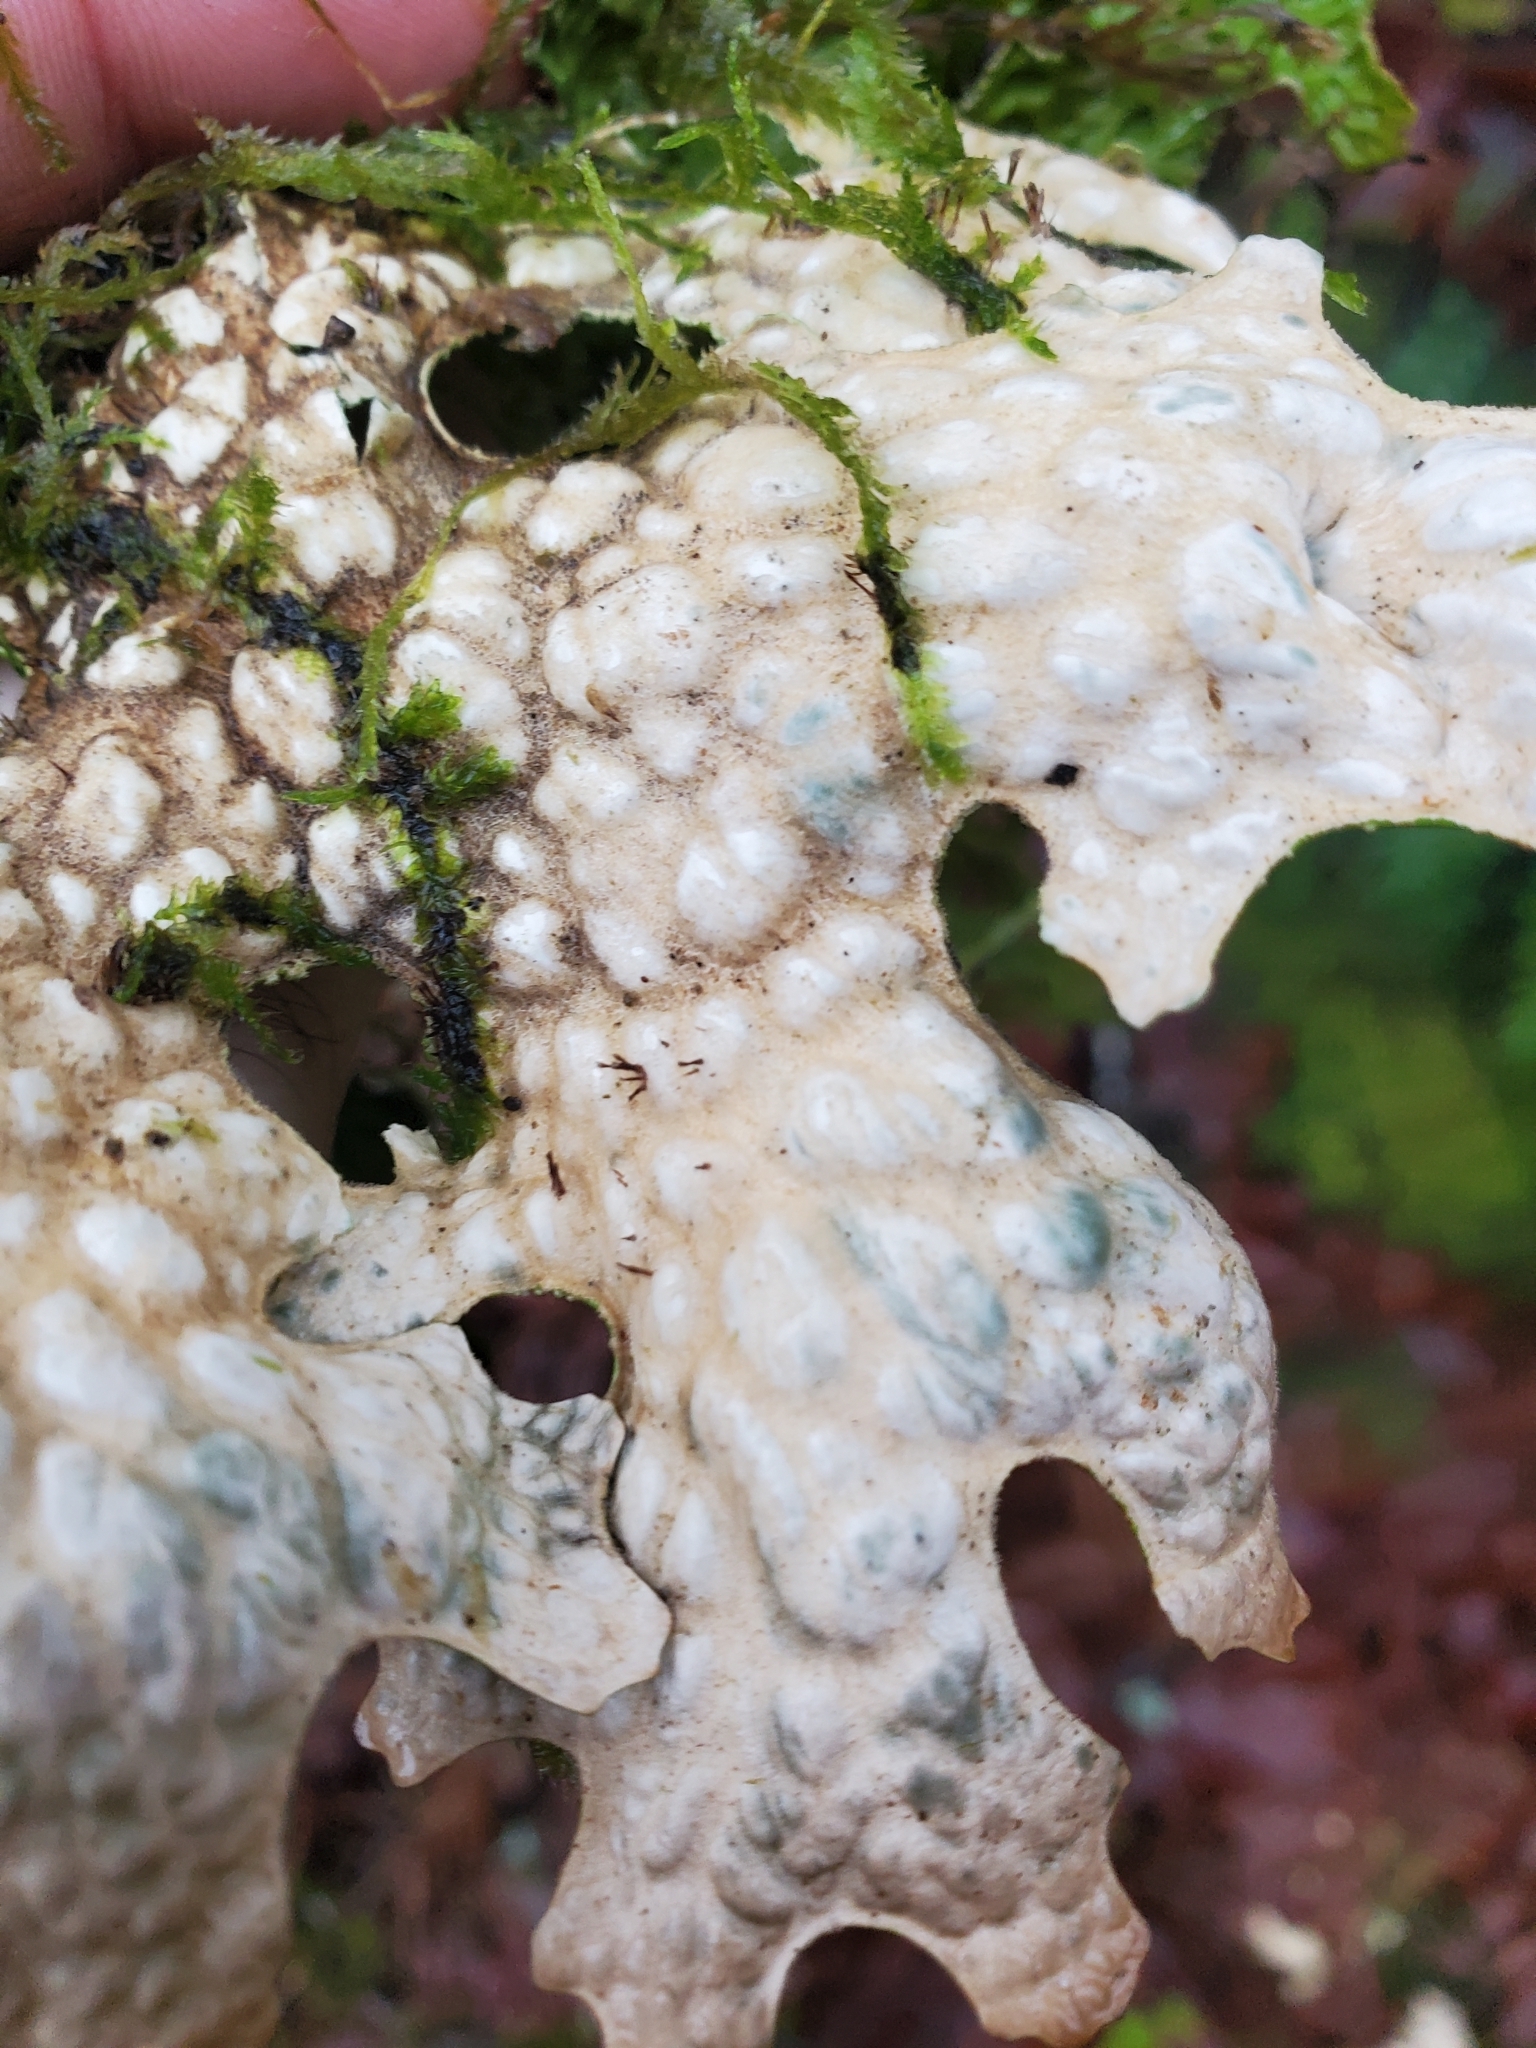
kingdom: Fungi
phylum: Ascomycota
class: Lecanoromycetes
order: Peltigerales
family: Lobariaceae
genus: Lobaria
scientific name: Lobaria pulmonaria
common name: Lungwort
